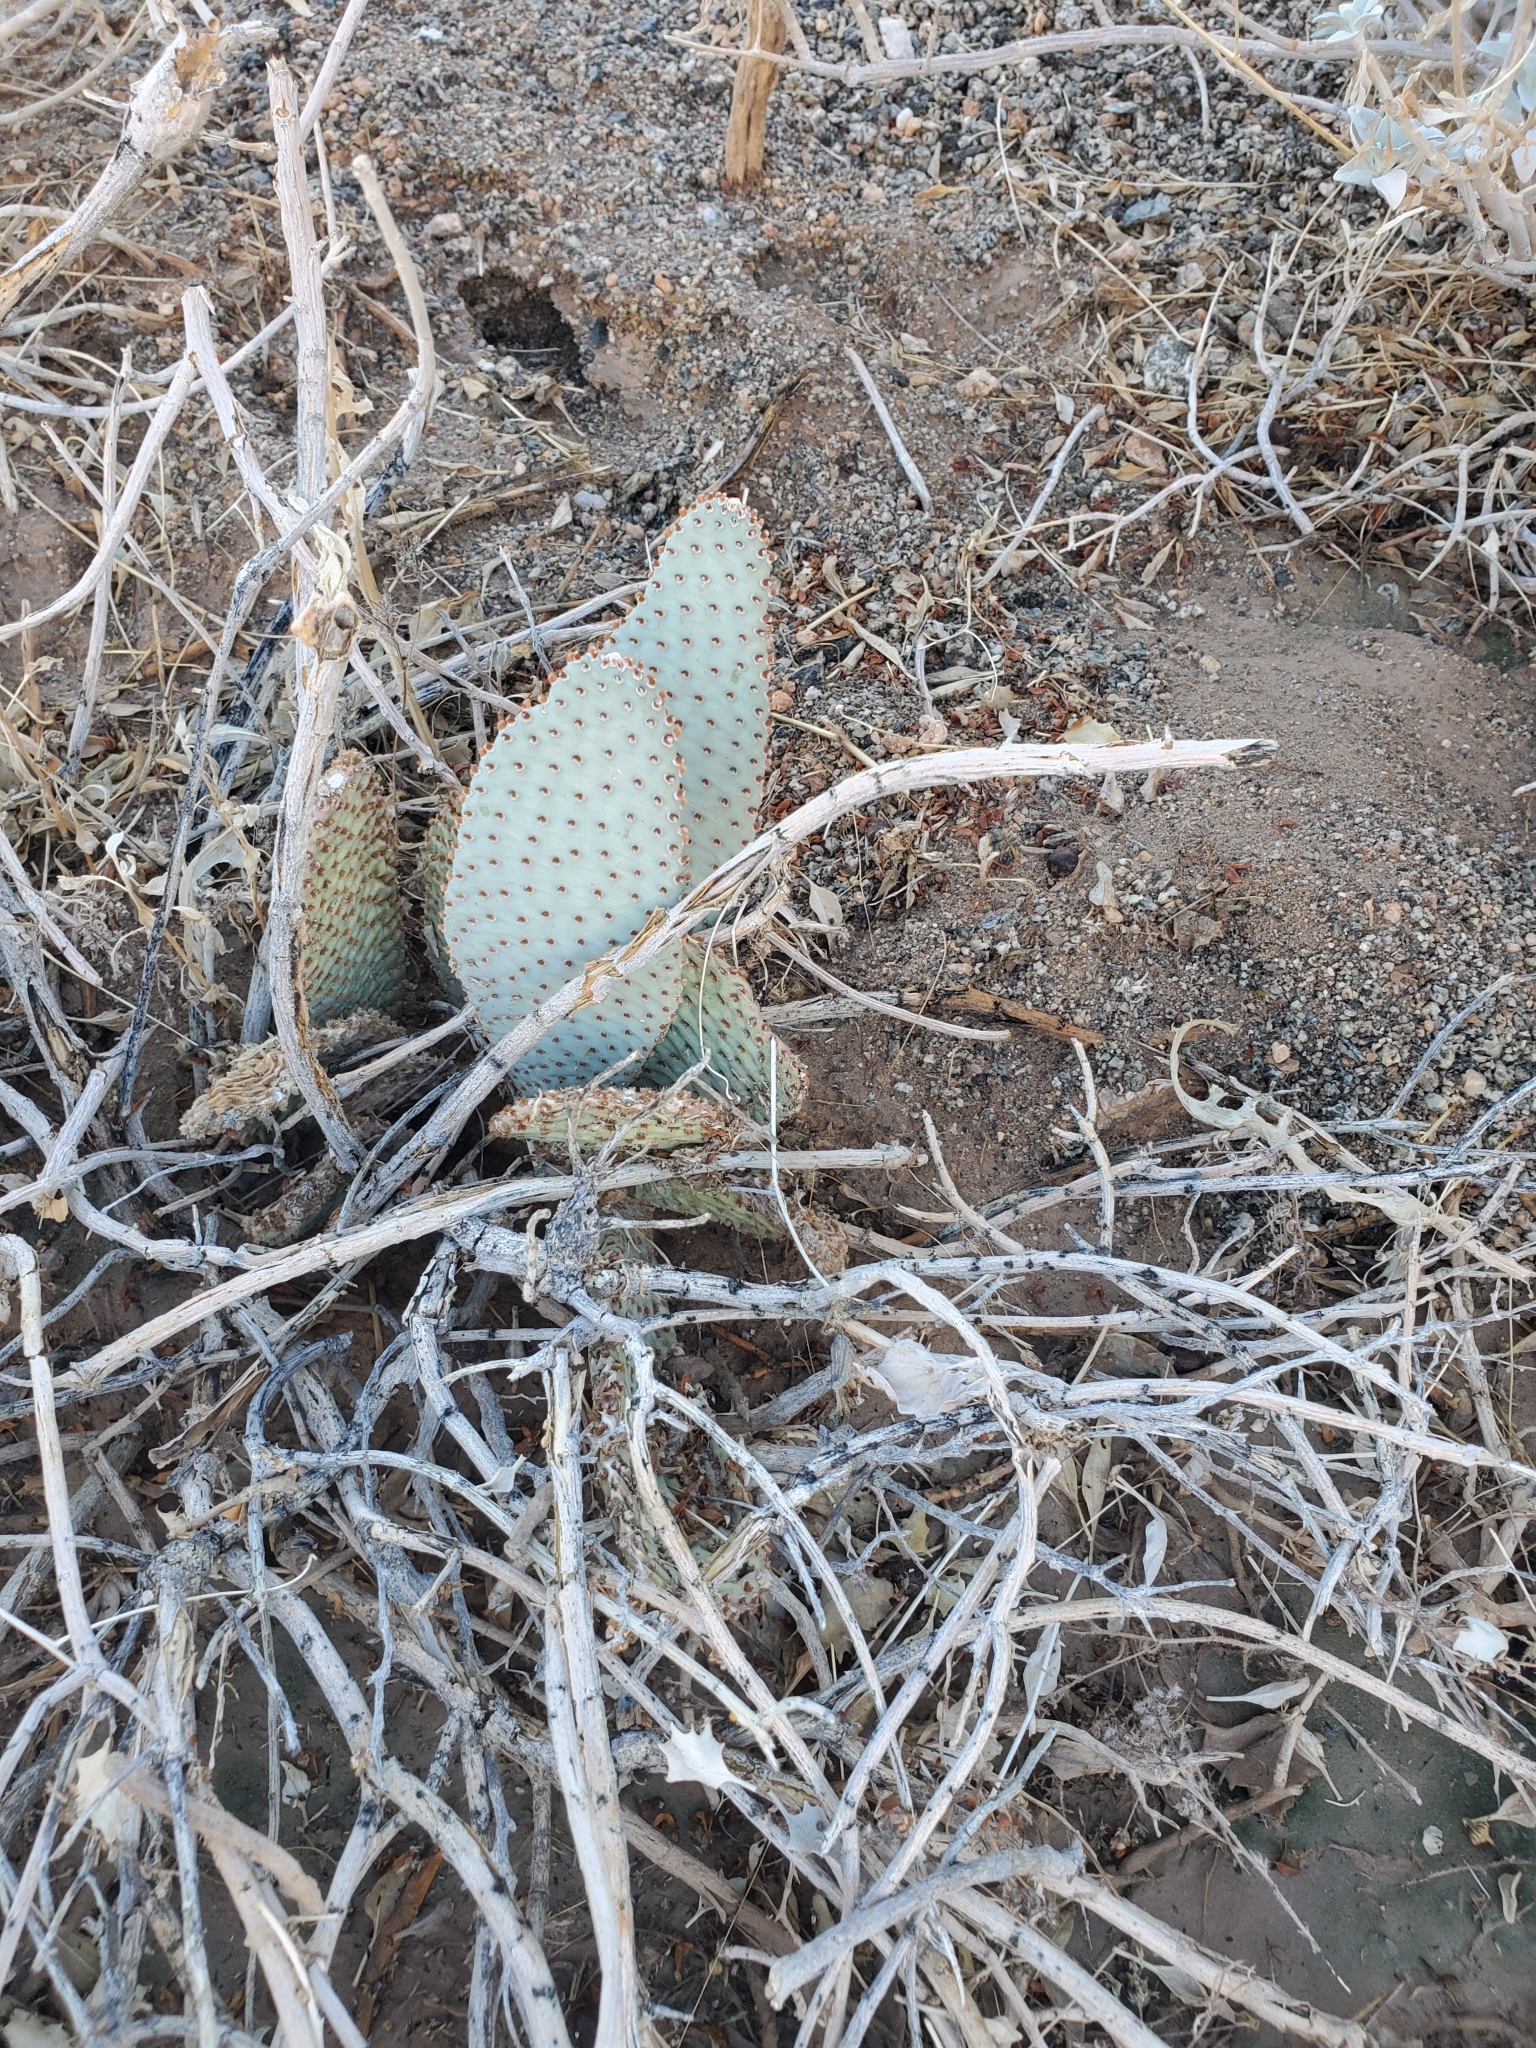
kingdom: Plantae
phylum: Tracheophyta
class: Magnoliopsida
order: Caryophyllales
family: Cactaceae
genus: Opuntia
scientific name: Opuntia basilaris
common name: Beavertail prickly-pear
